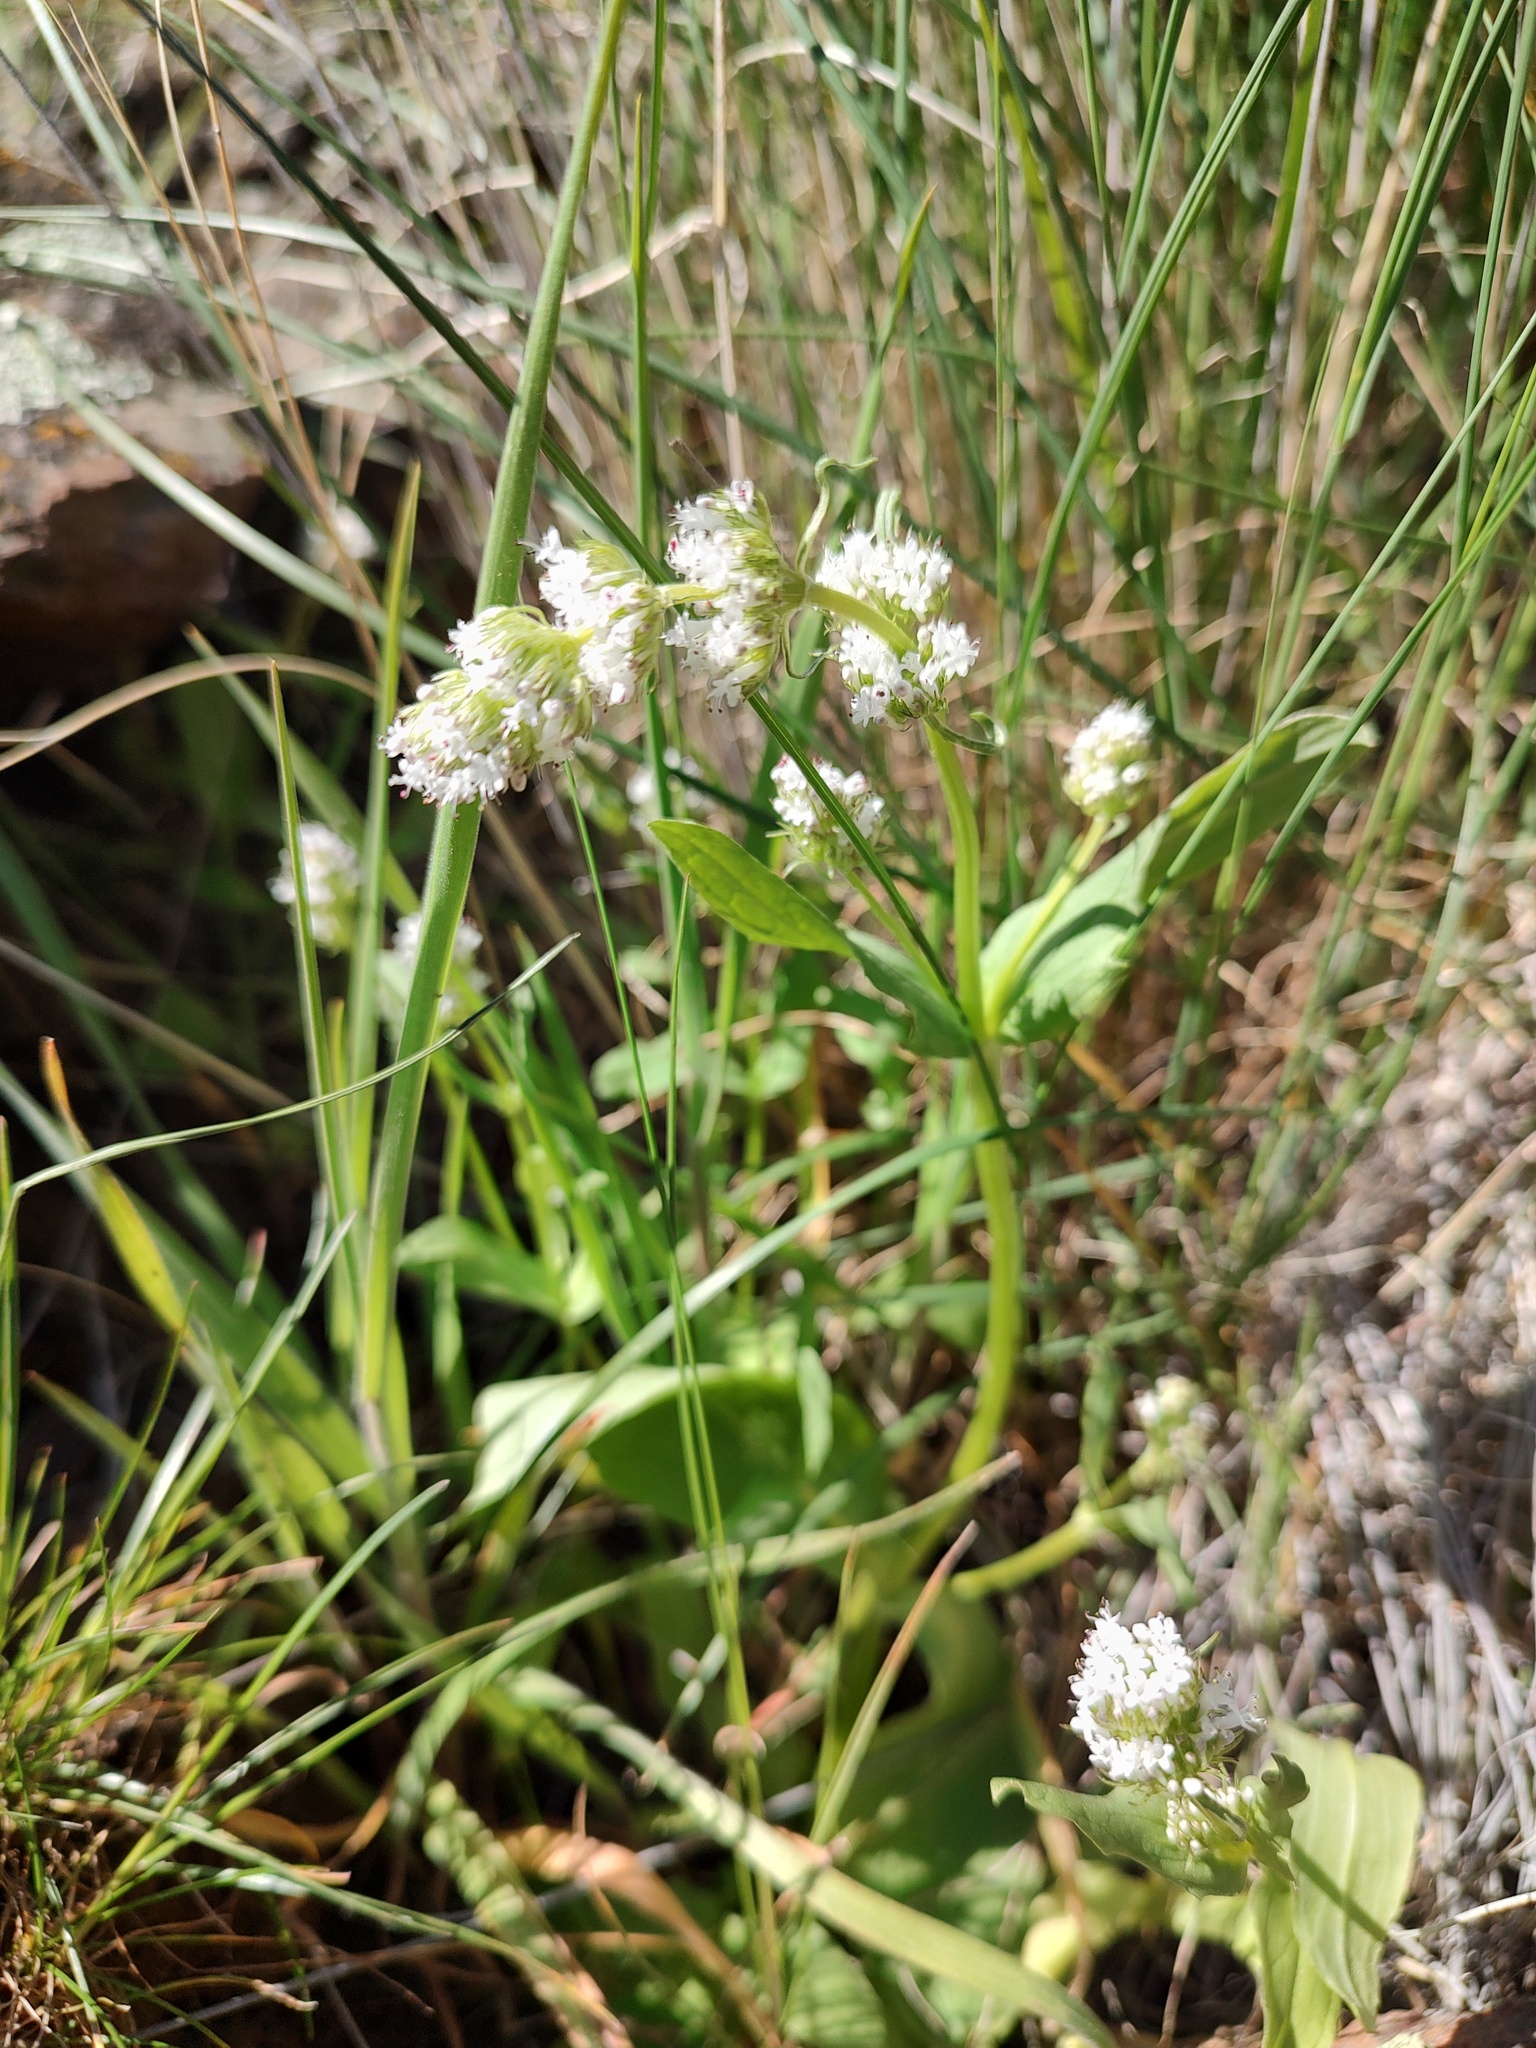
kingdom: Plantae
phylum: Tracheophyta
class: Magnoliopsida
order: Dipsacales
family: Caprifoliaceae
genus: Plectritis
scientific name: Plectritis macroptera
